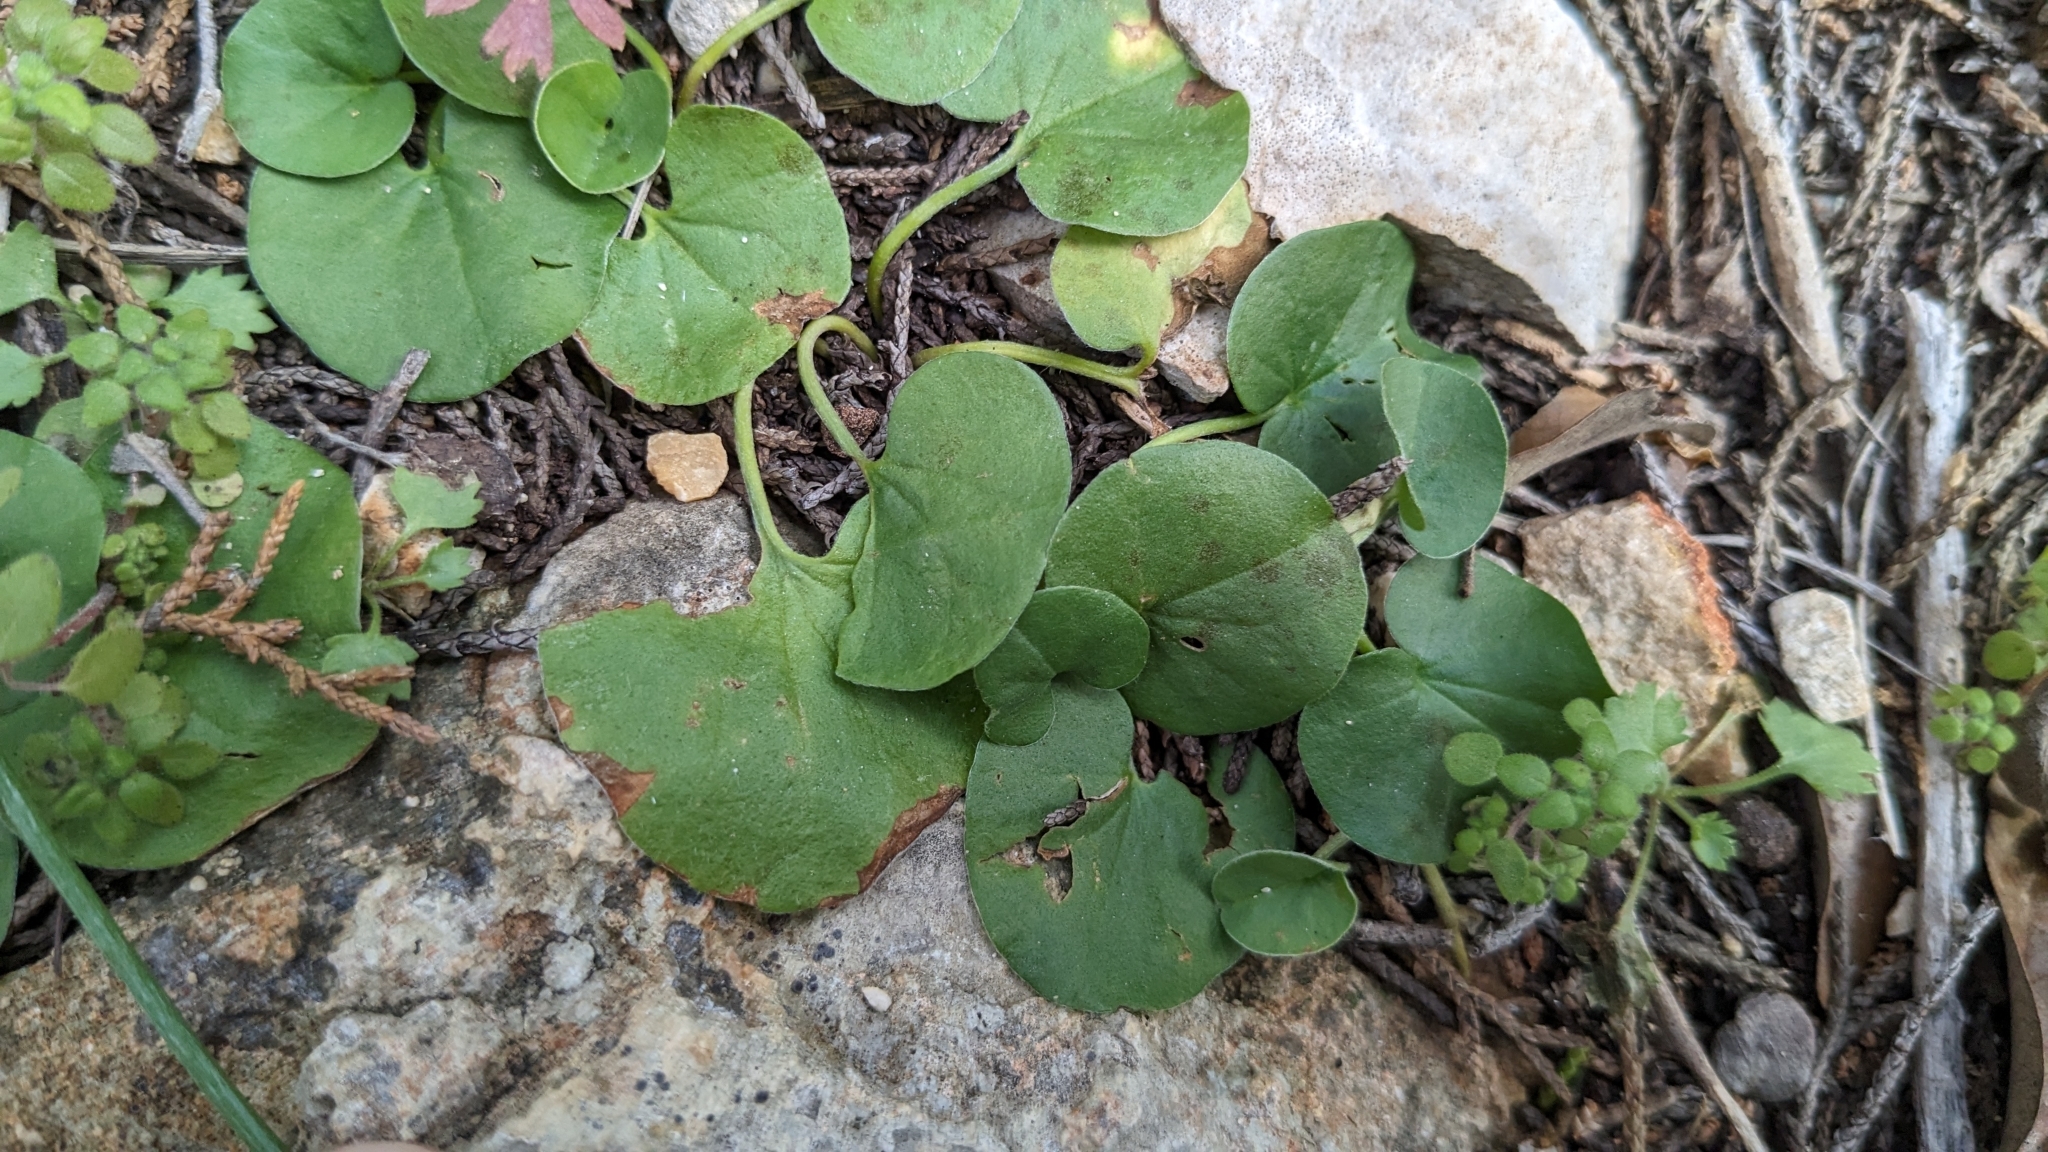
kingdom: Plantae
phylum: Tracheophyta
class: Magnoliopsida
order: Solanales
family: Convolvulaceae
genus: Dichondra
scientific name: Dichondra carolinensis
